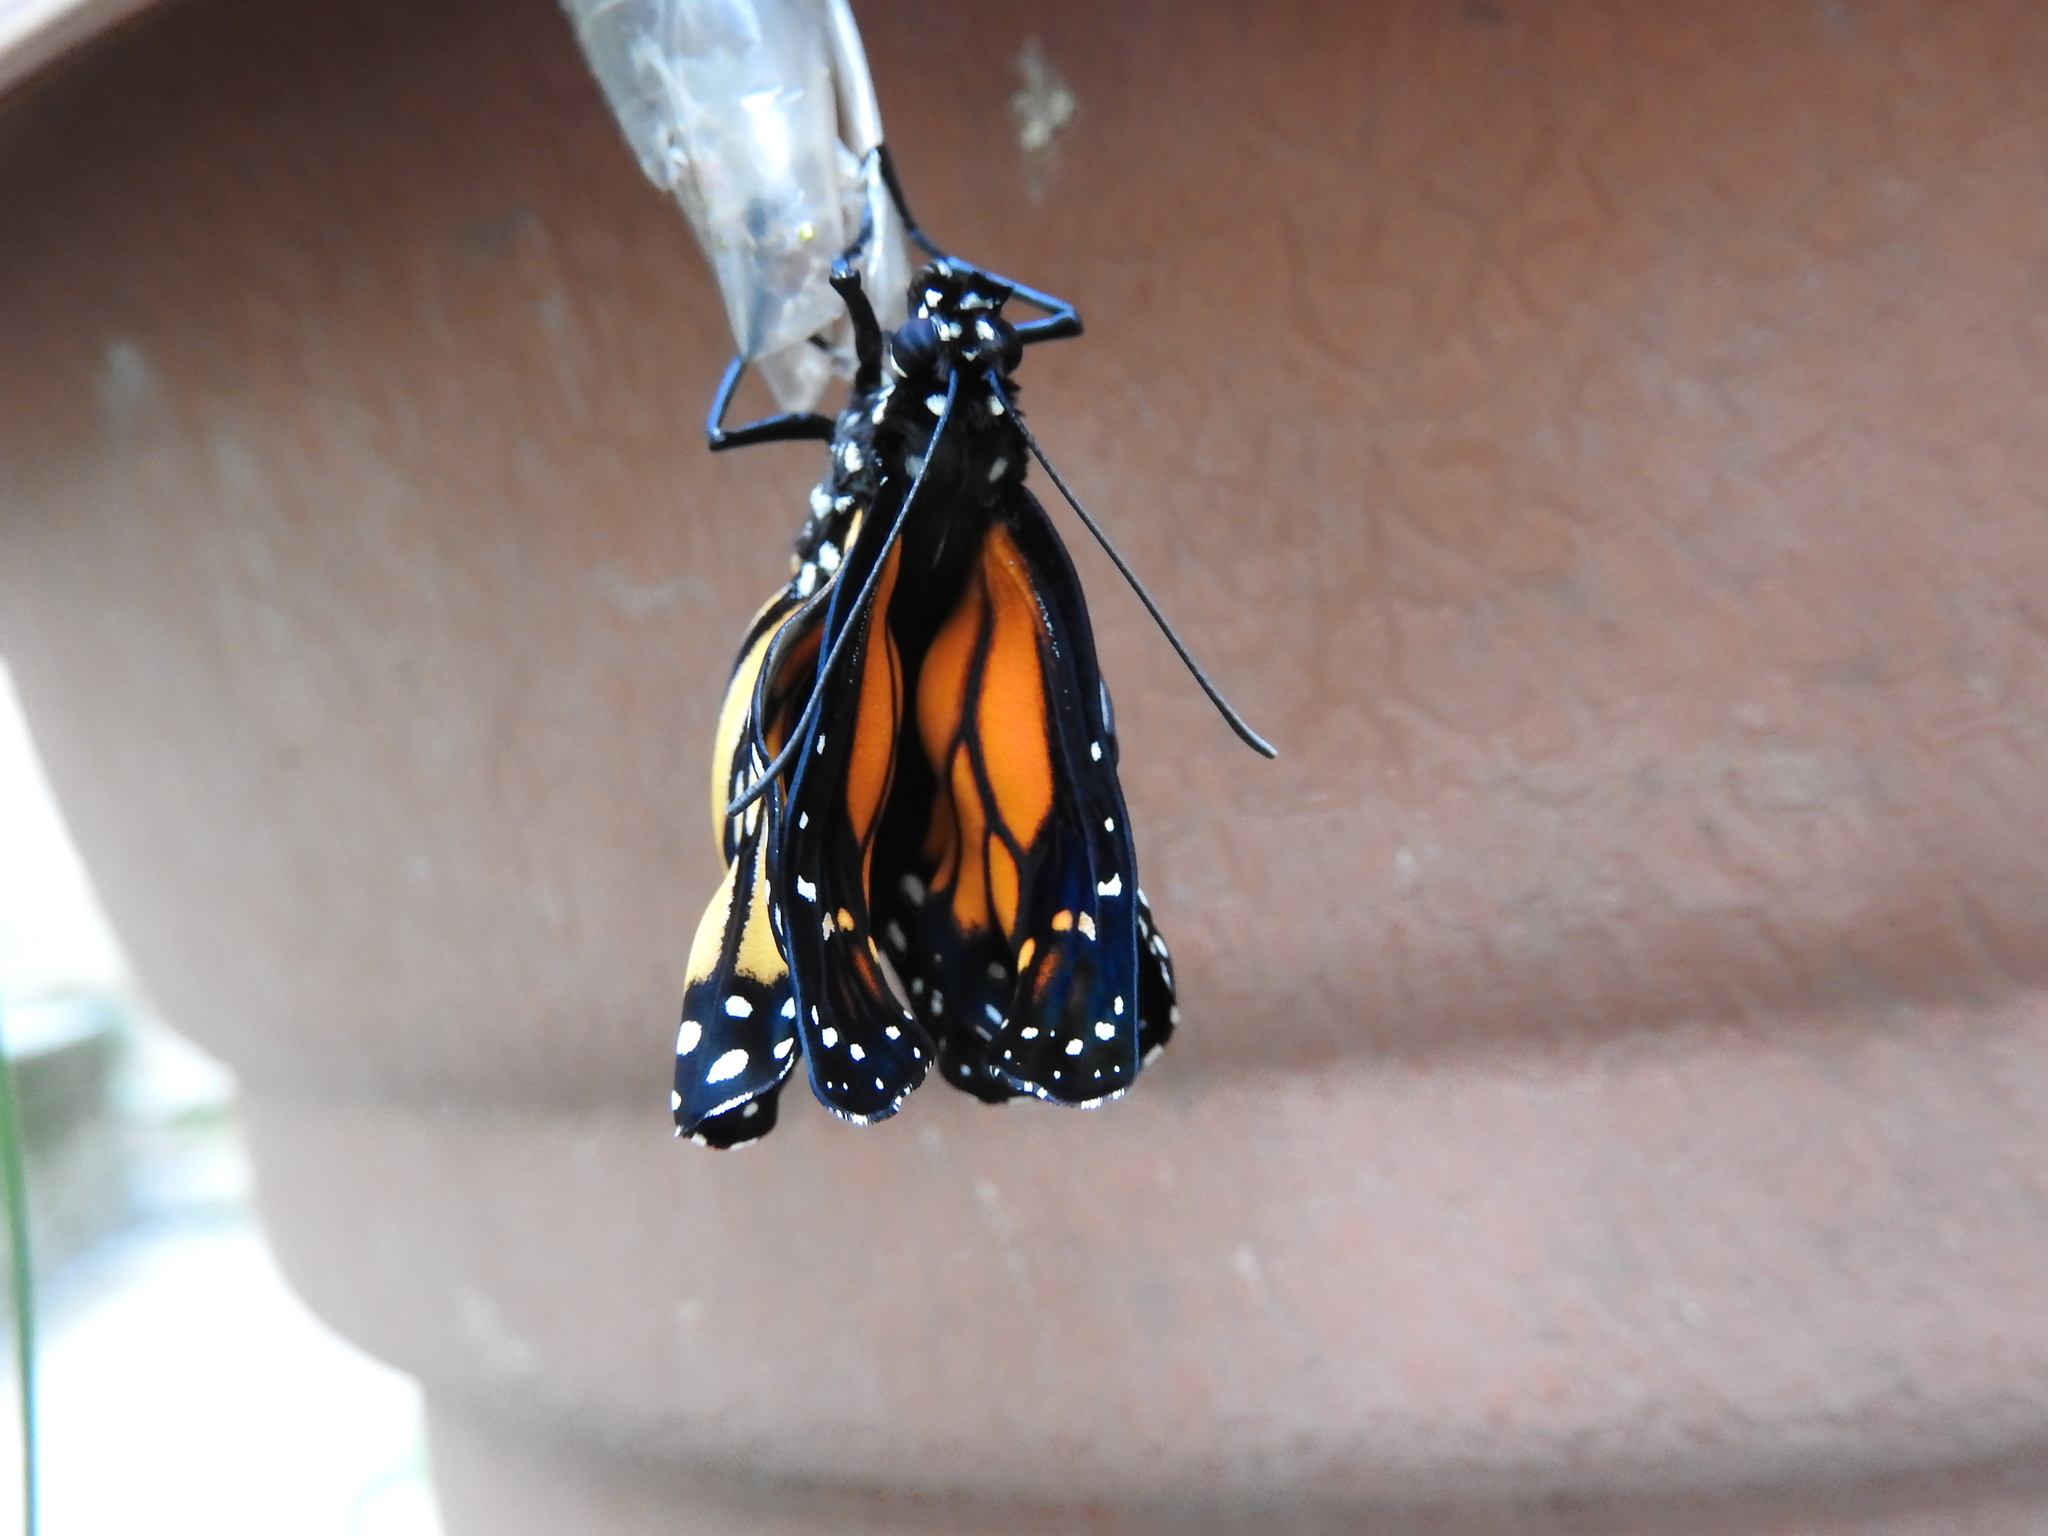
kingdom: Animalia
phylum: Arthropoda
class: Insecta
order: Lepidoptera
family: Nymphalidae
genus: Danaus
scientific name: Danaus plexippus
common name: Monarch
